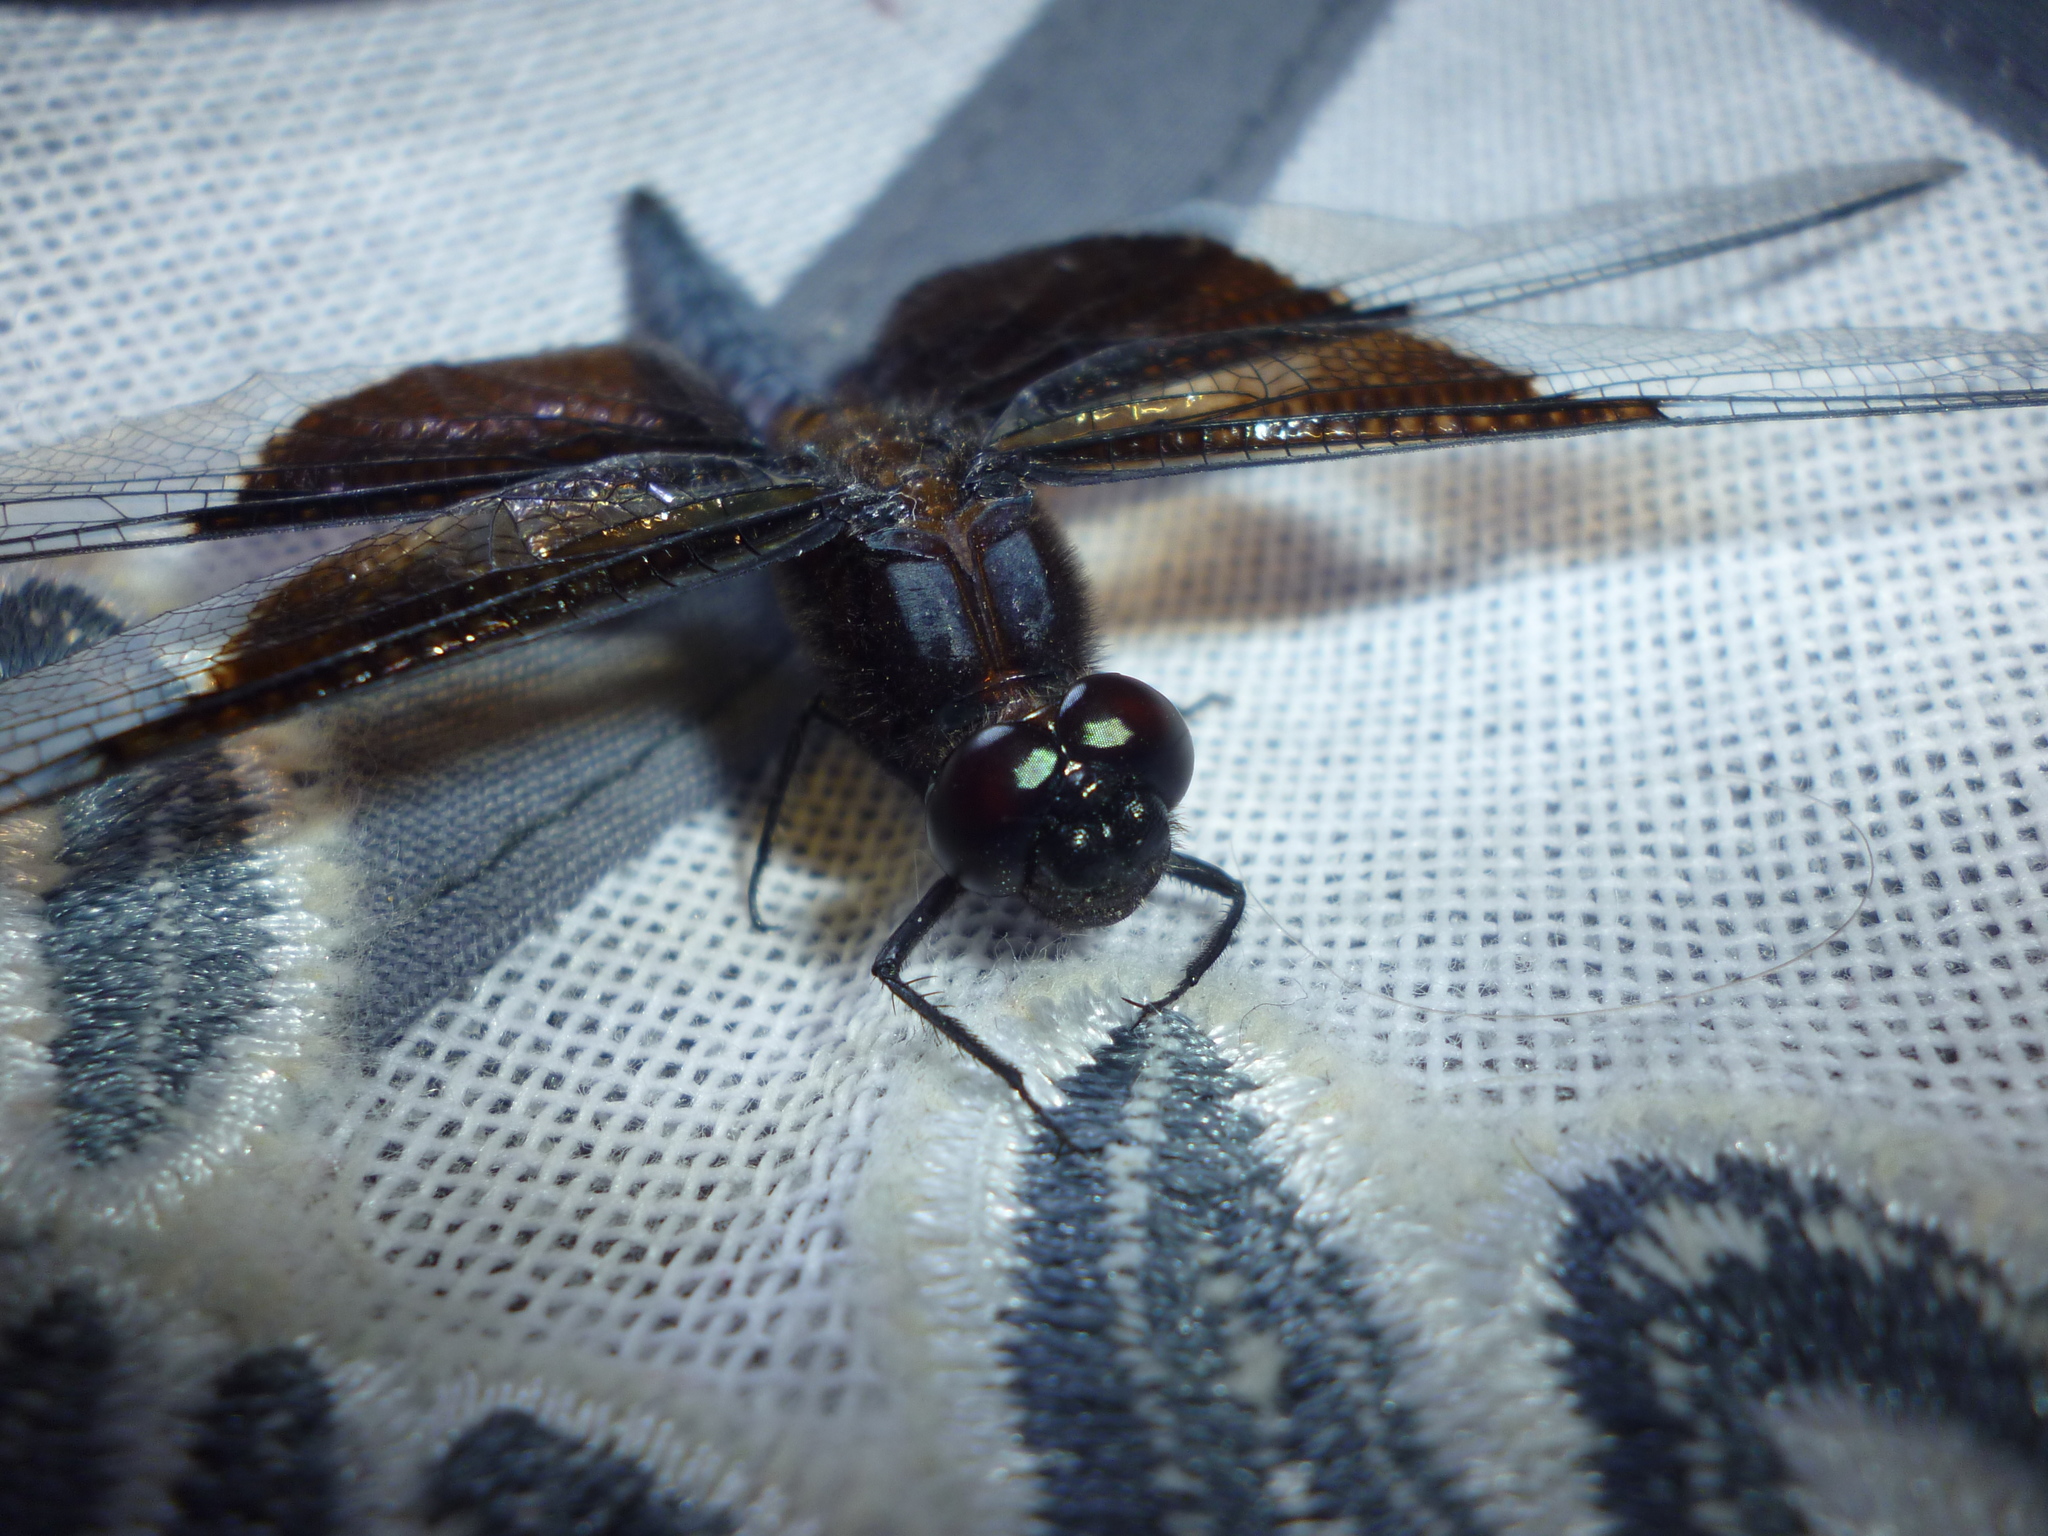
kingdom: Animalia
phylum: Arthropoda
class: Insecta
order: Odonata
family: Libellulidae
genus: Libellula
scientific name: Libellula luctuosa
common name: Widow skimmer
